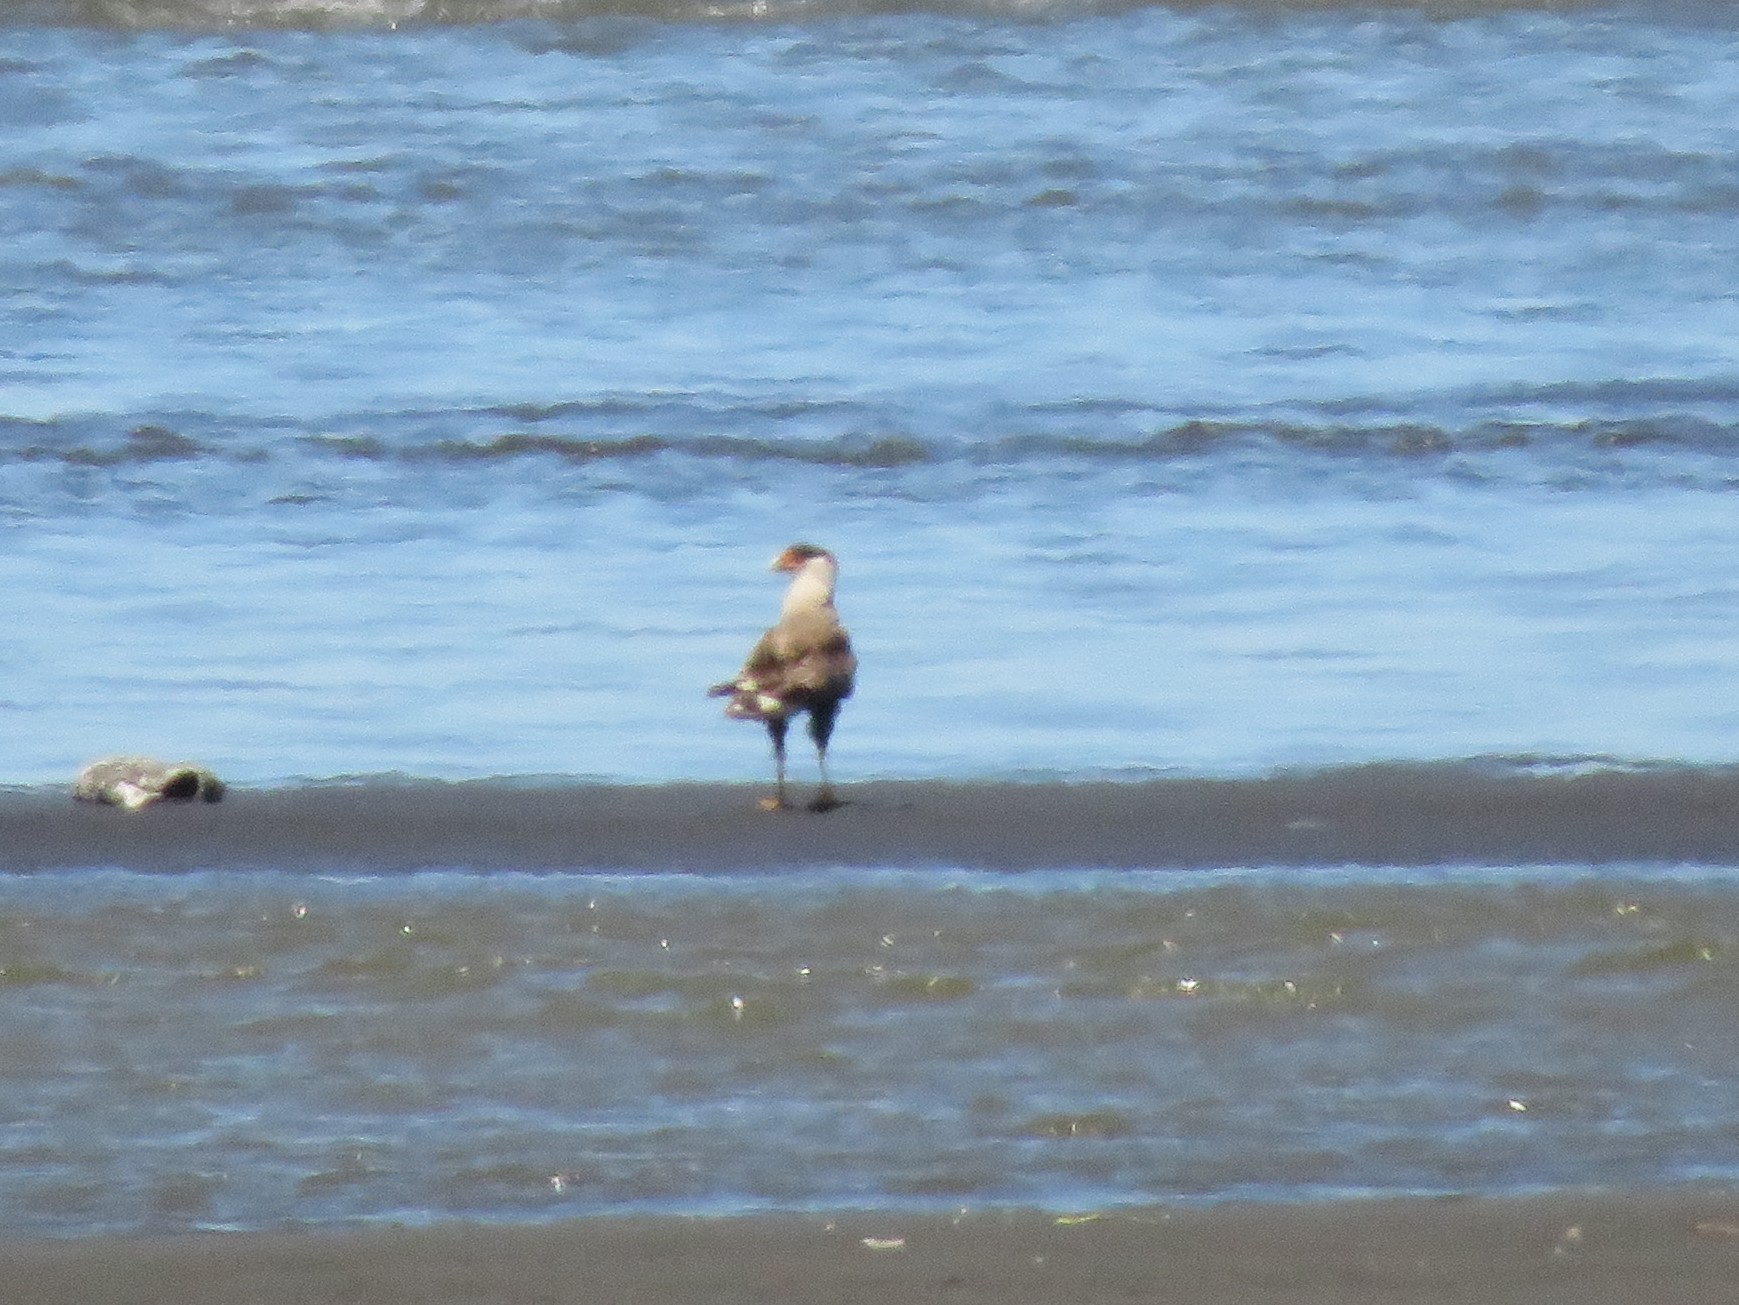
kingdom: Animalia
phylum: Chordata
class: Aves
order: Falconiformes
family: Falconidae
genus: Caracara
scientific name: Caracara plancus
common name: Southern caracara
